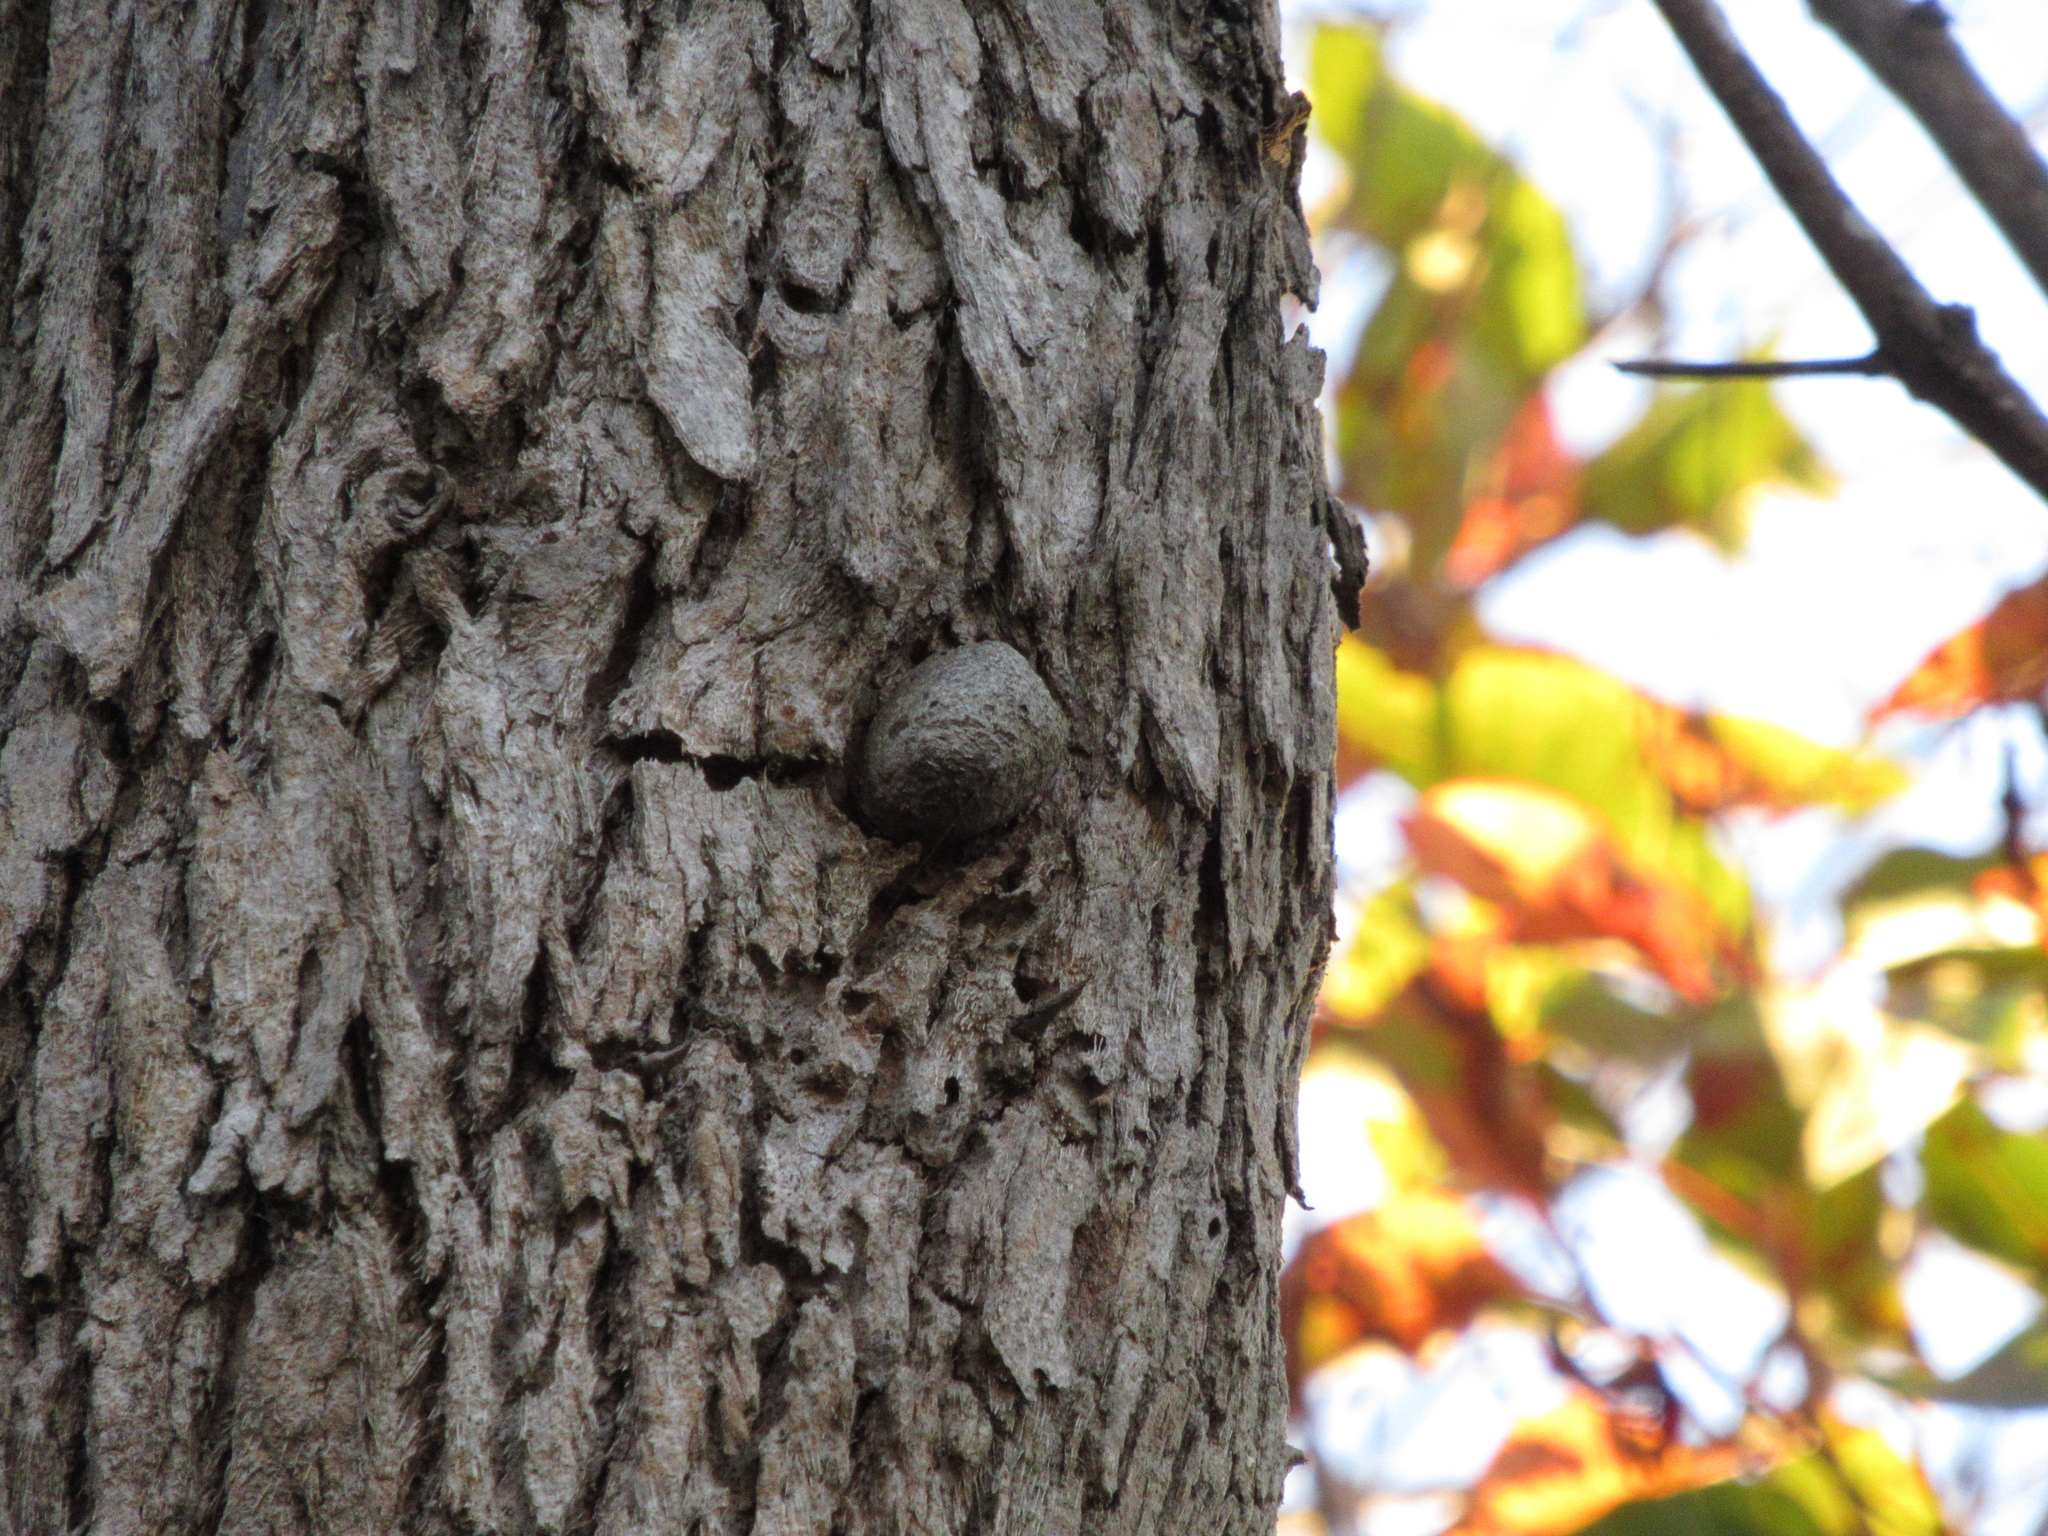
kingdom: Animalia
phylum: Arthropoda
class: Insecta
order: Lepidoptera
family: Saturniidae
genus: Opodiphthera
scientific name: Opodiphthera
